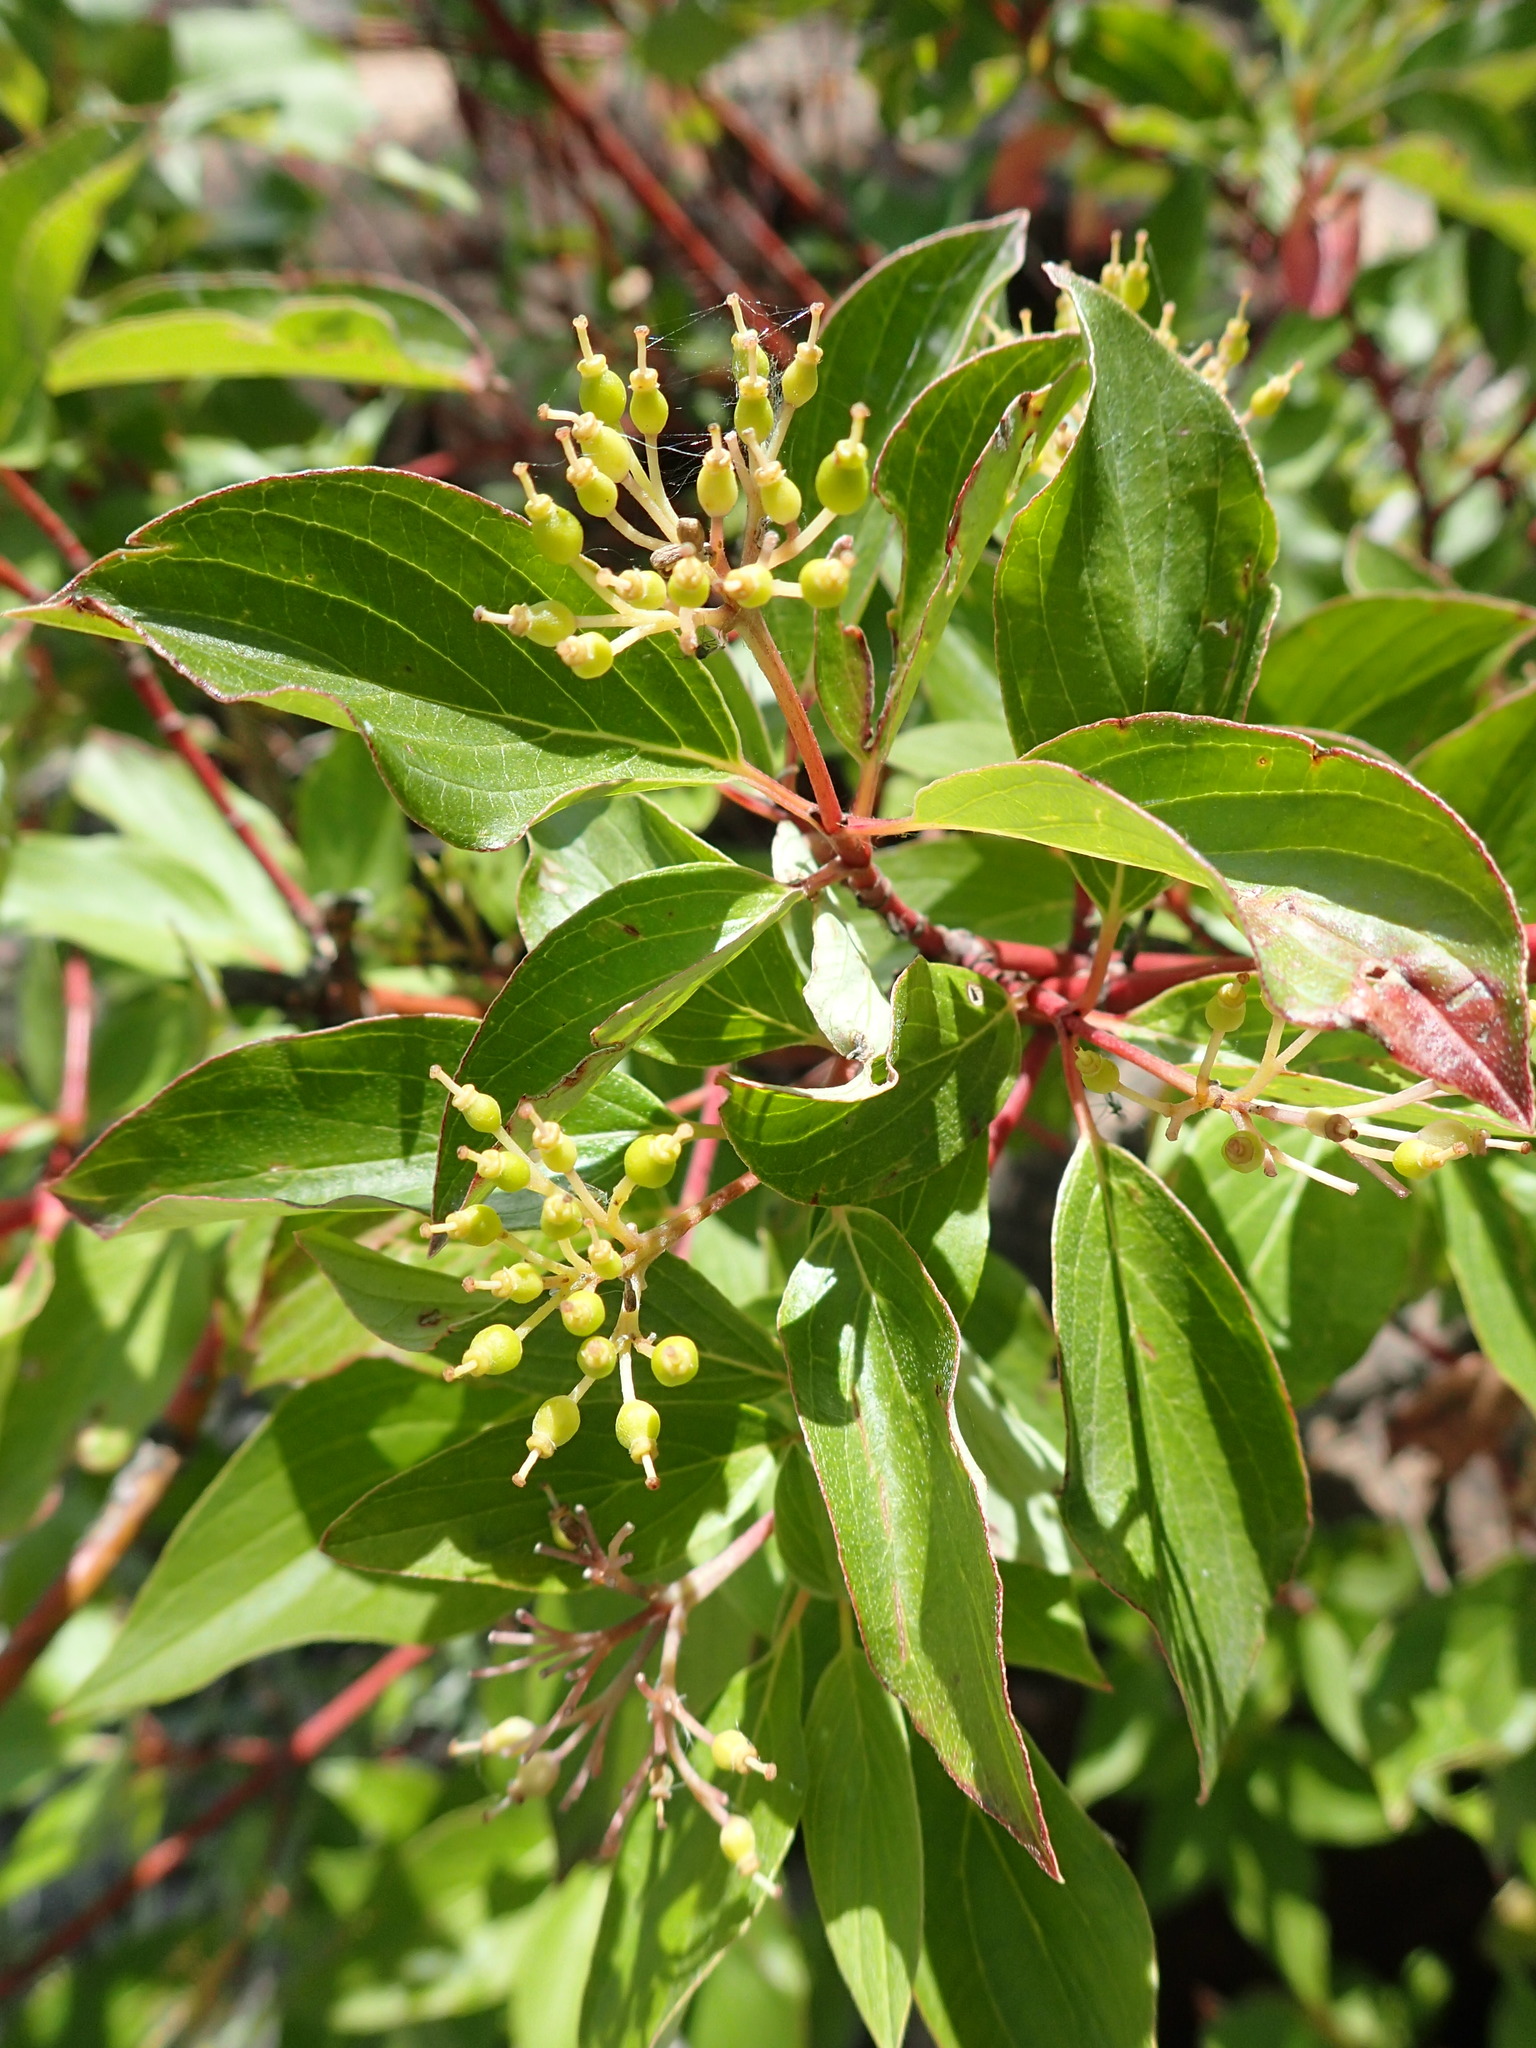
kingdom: Plantae
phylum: Tracheophyta
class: Magnoliopsida
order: Cornales
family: Cornaceae
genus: Cornus
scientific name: Cornus sericea
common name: Red-osier dogwood
